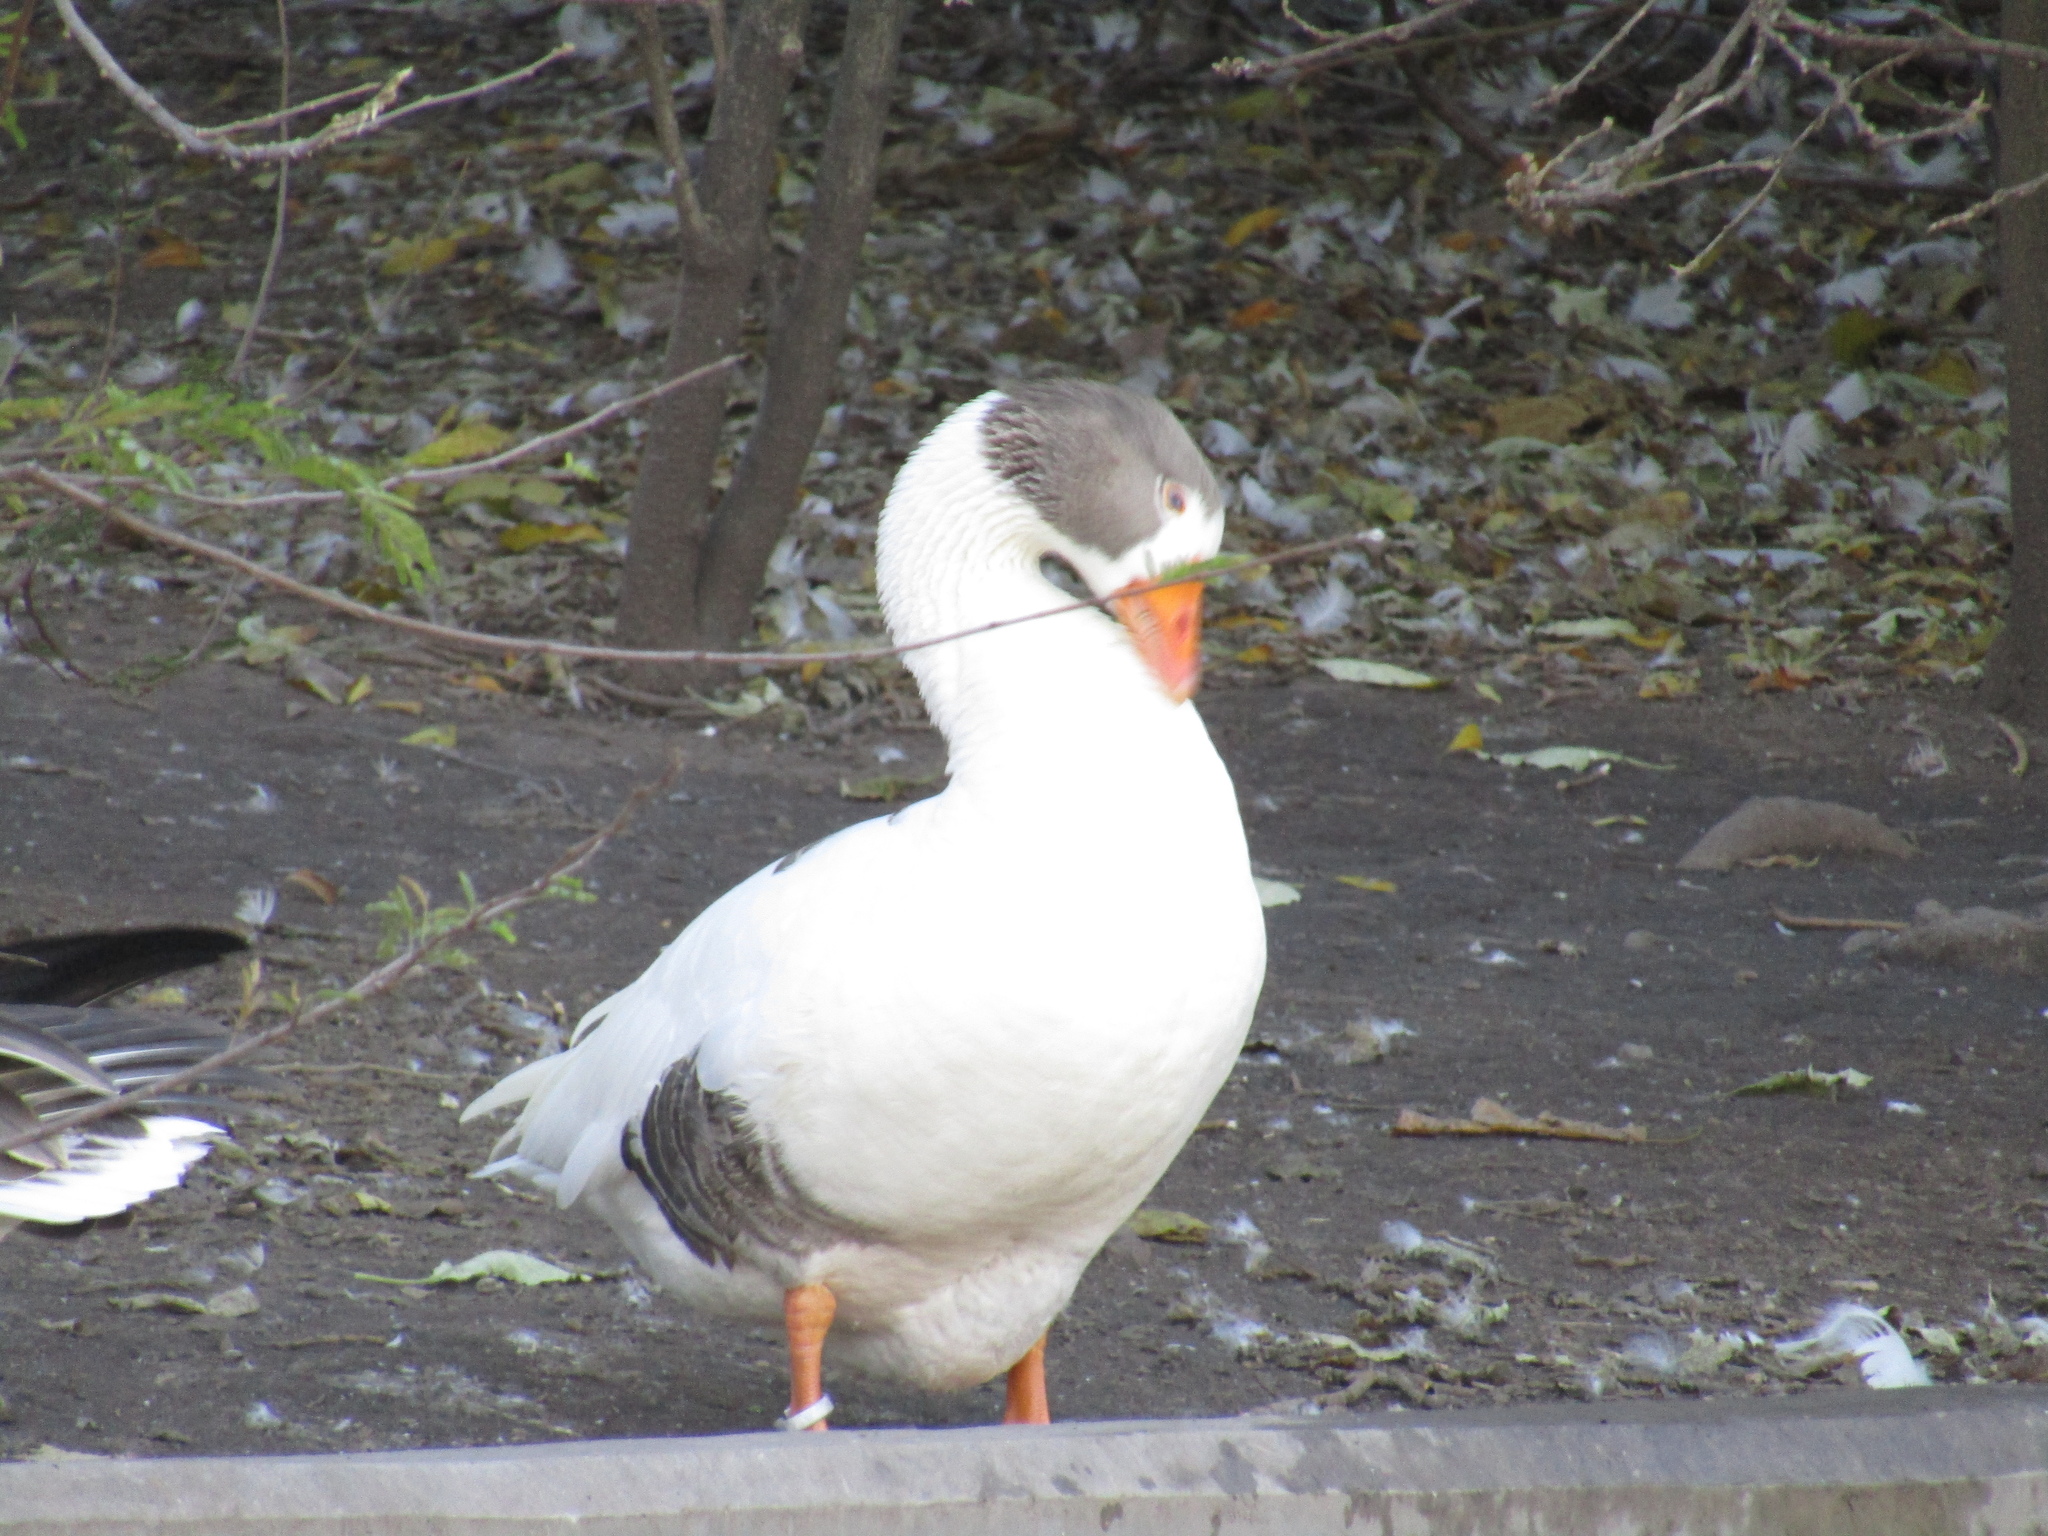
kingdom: Animalia
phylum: Chordata
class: Aves
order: Anseriformes
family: Anatidae
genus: Anser
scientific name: Anser anser
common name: Greylag goose
